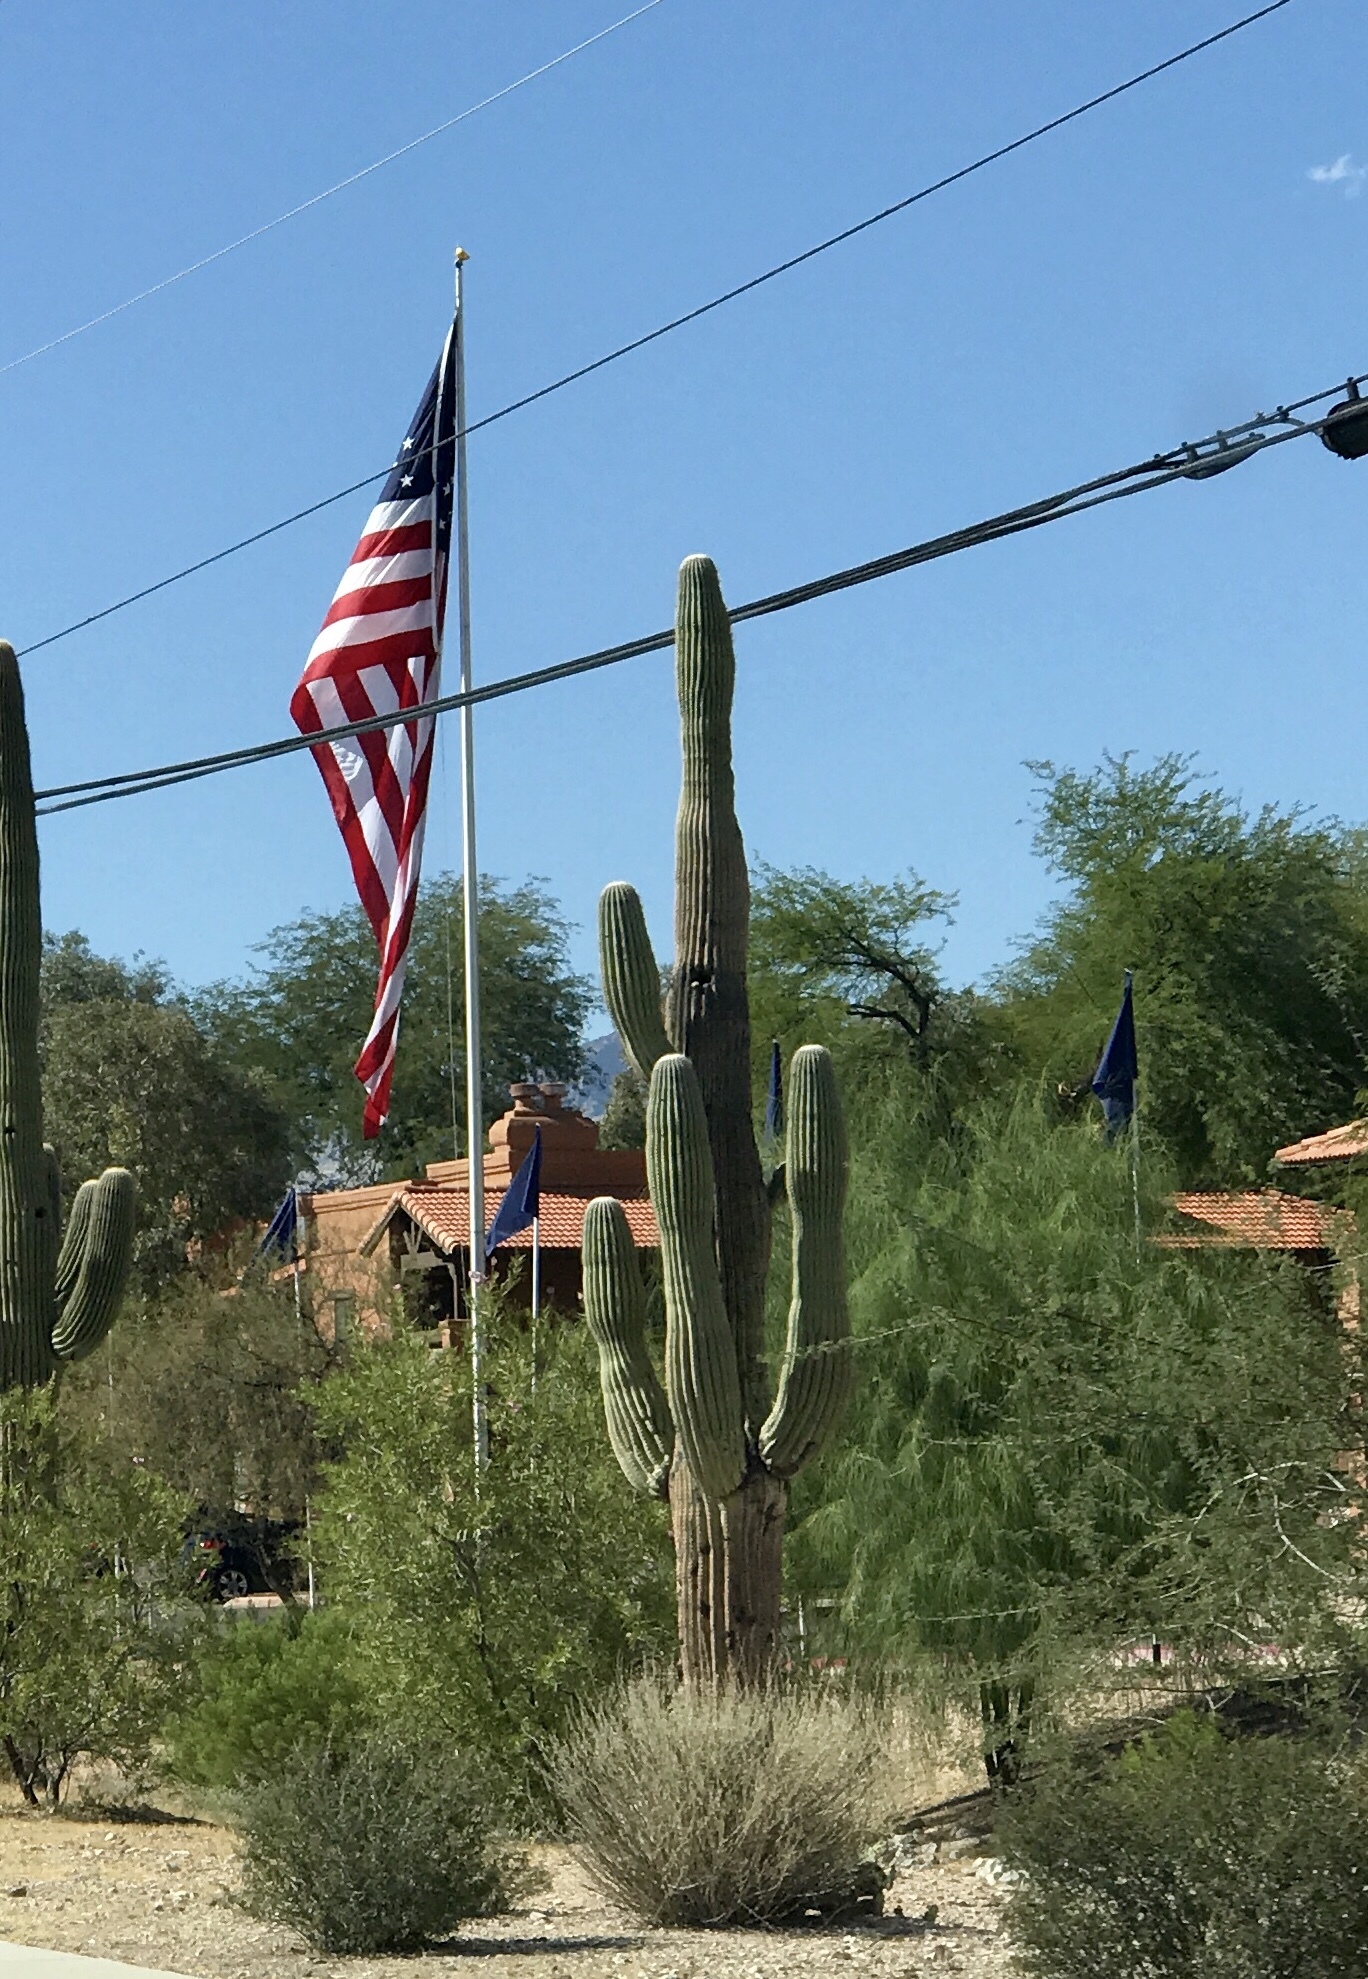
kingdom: Plantae
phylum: Tracheophyta
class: Magnoliopsida
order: Caryophyllales
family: Cactaceae
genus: Carnegiea
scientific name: Carnegiea gigantea
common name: Saguaro
